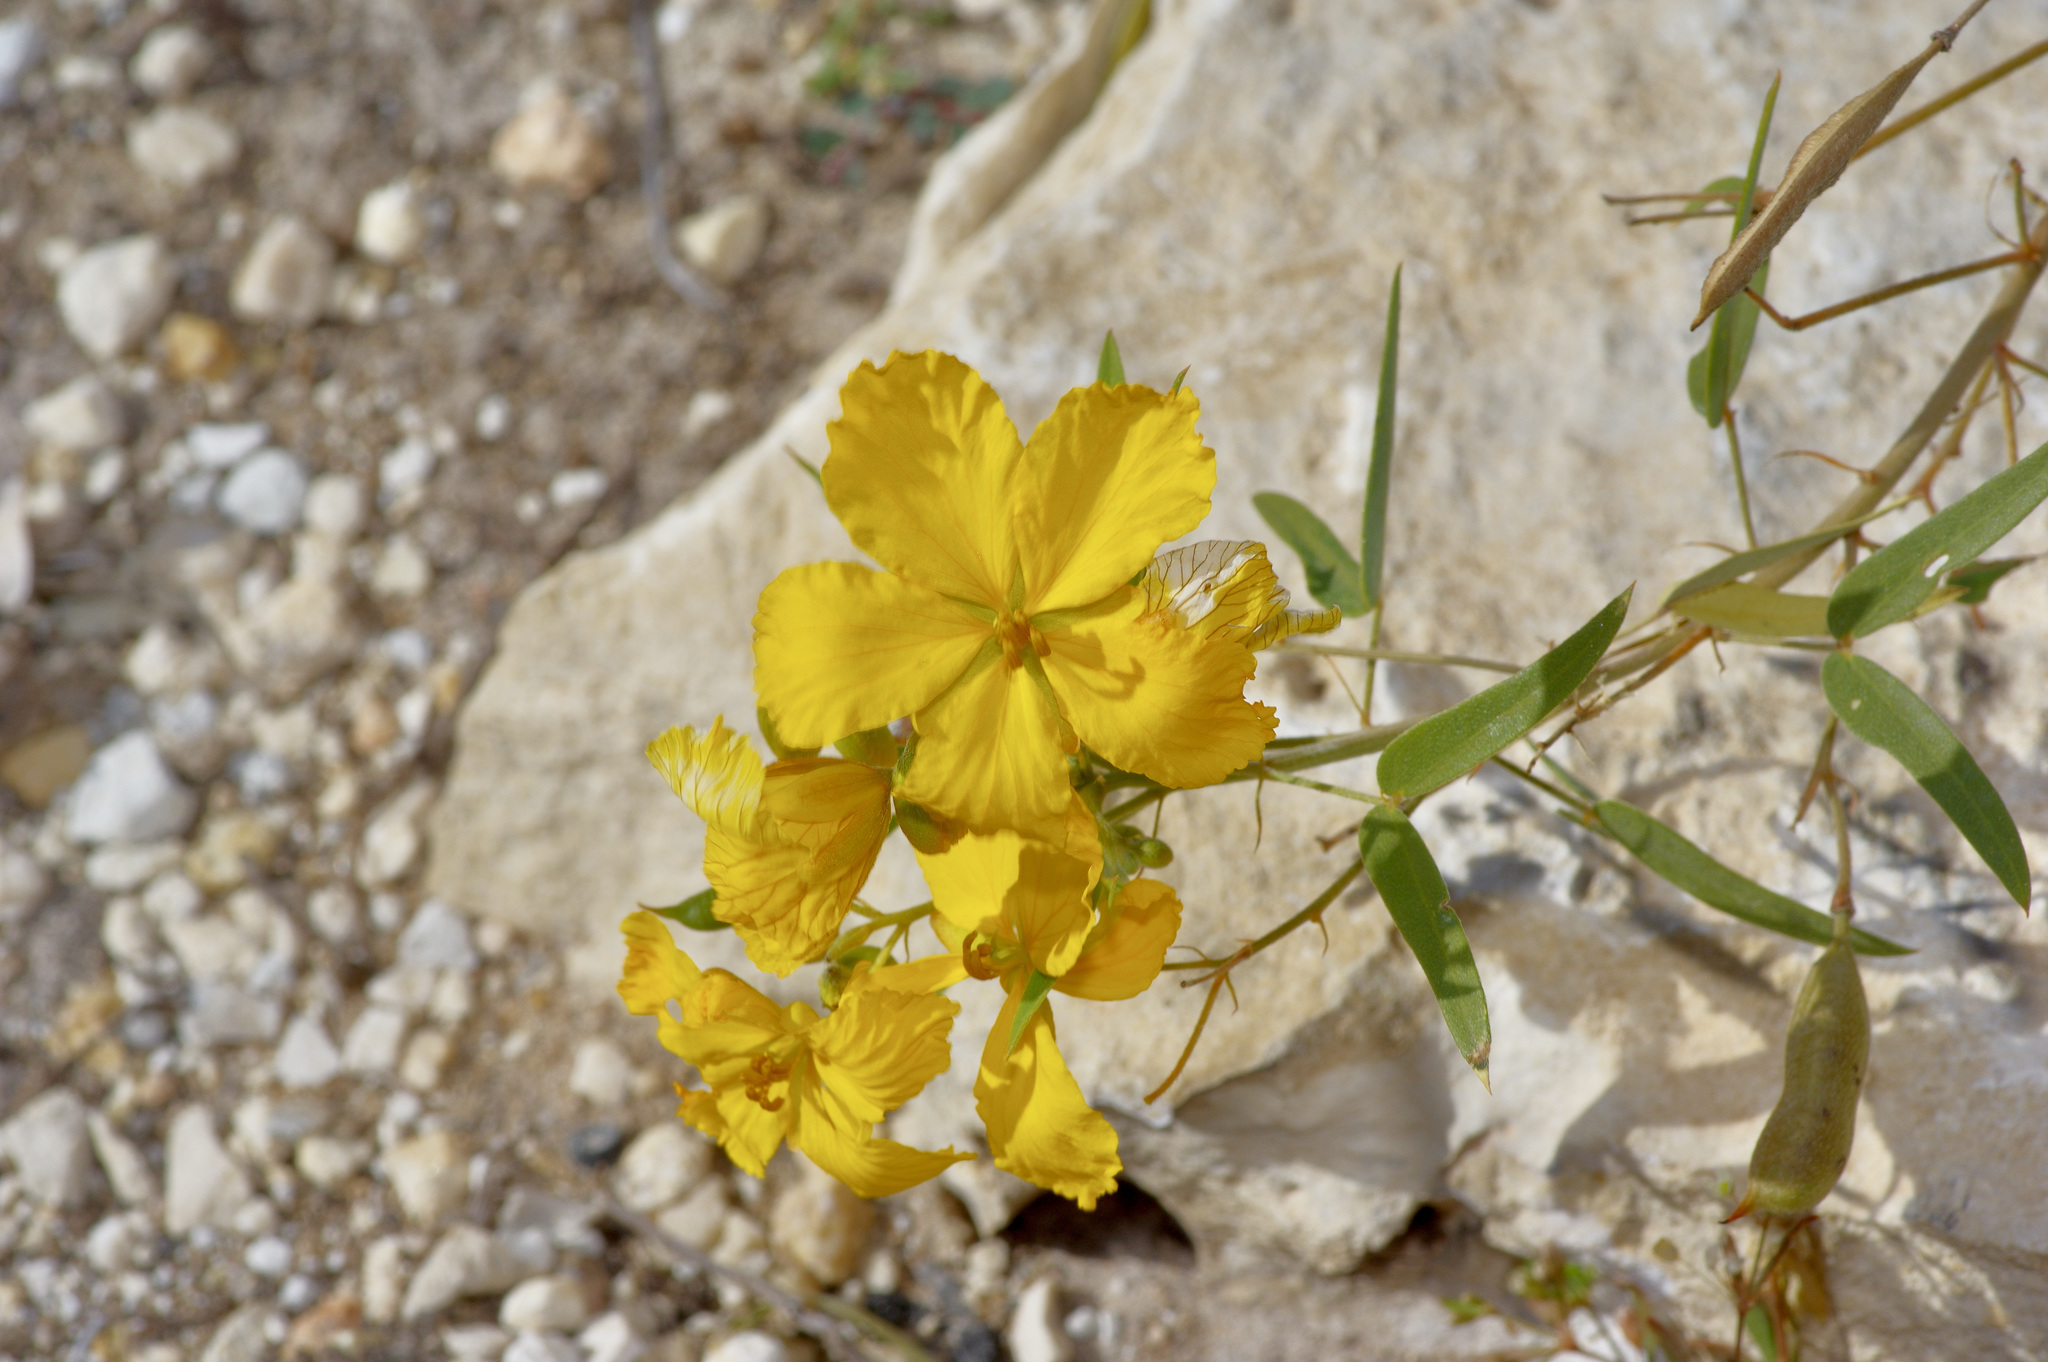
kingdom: Plantae
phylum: Tracheophyta
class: Magnoliopsida
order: Fabales
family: Fabaceae
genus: Senna
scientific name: Senna roemeriana
